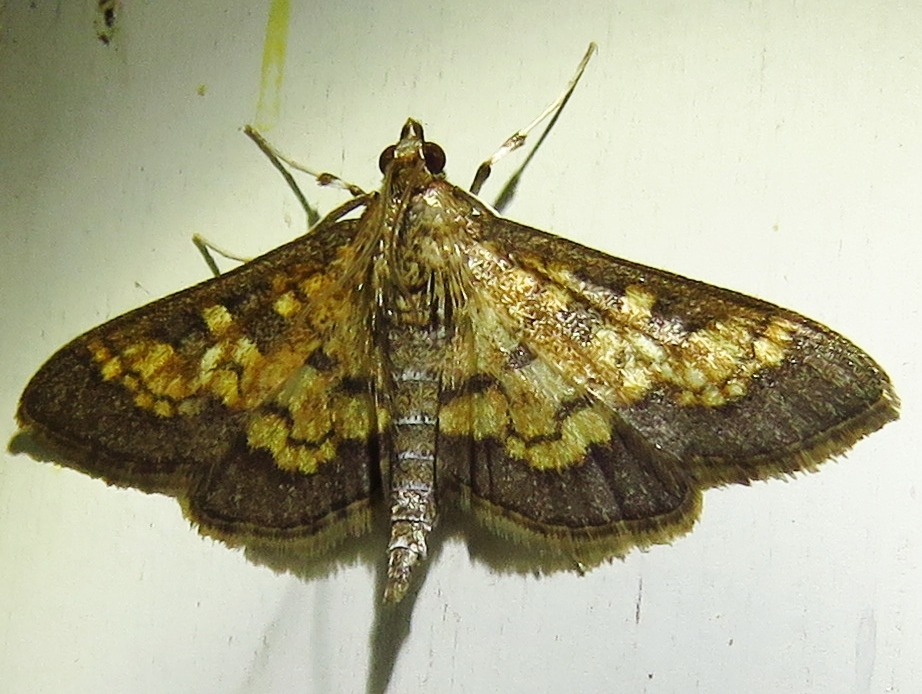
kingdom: Animalia
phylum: Arthropoda
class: Insecta
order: Lepidoptera
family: Crambidae
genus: Cryptographis
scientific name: Cryptographis elealis
